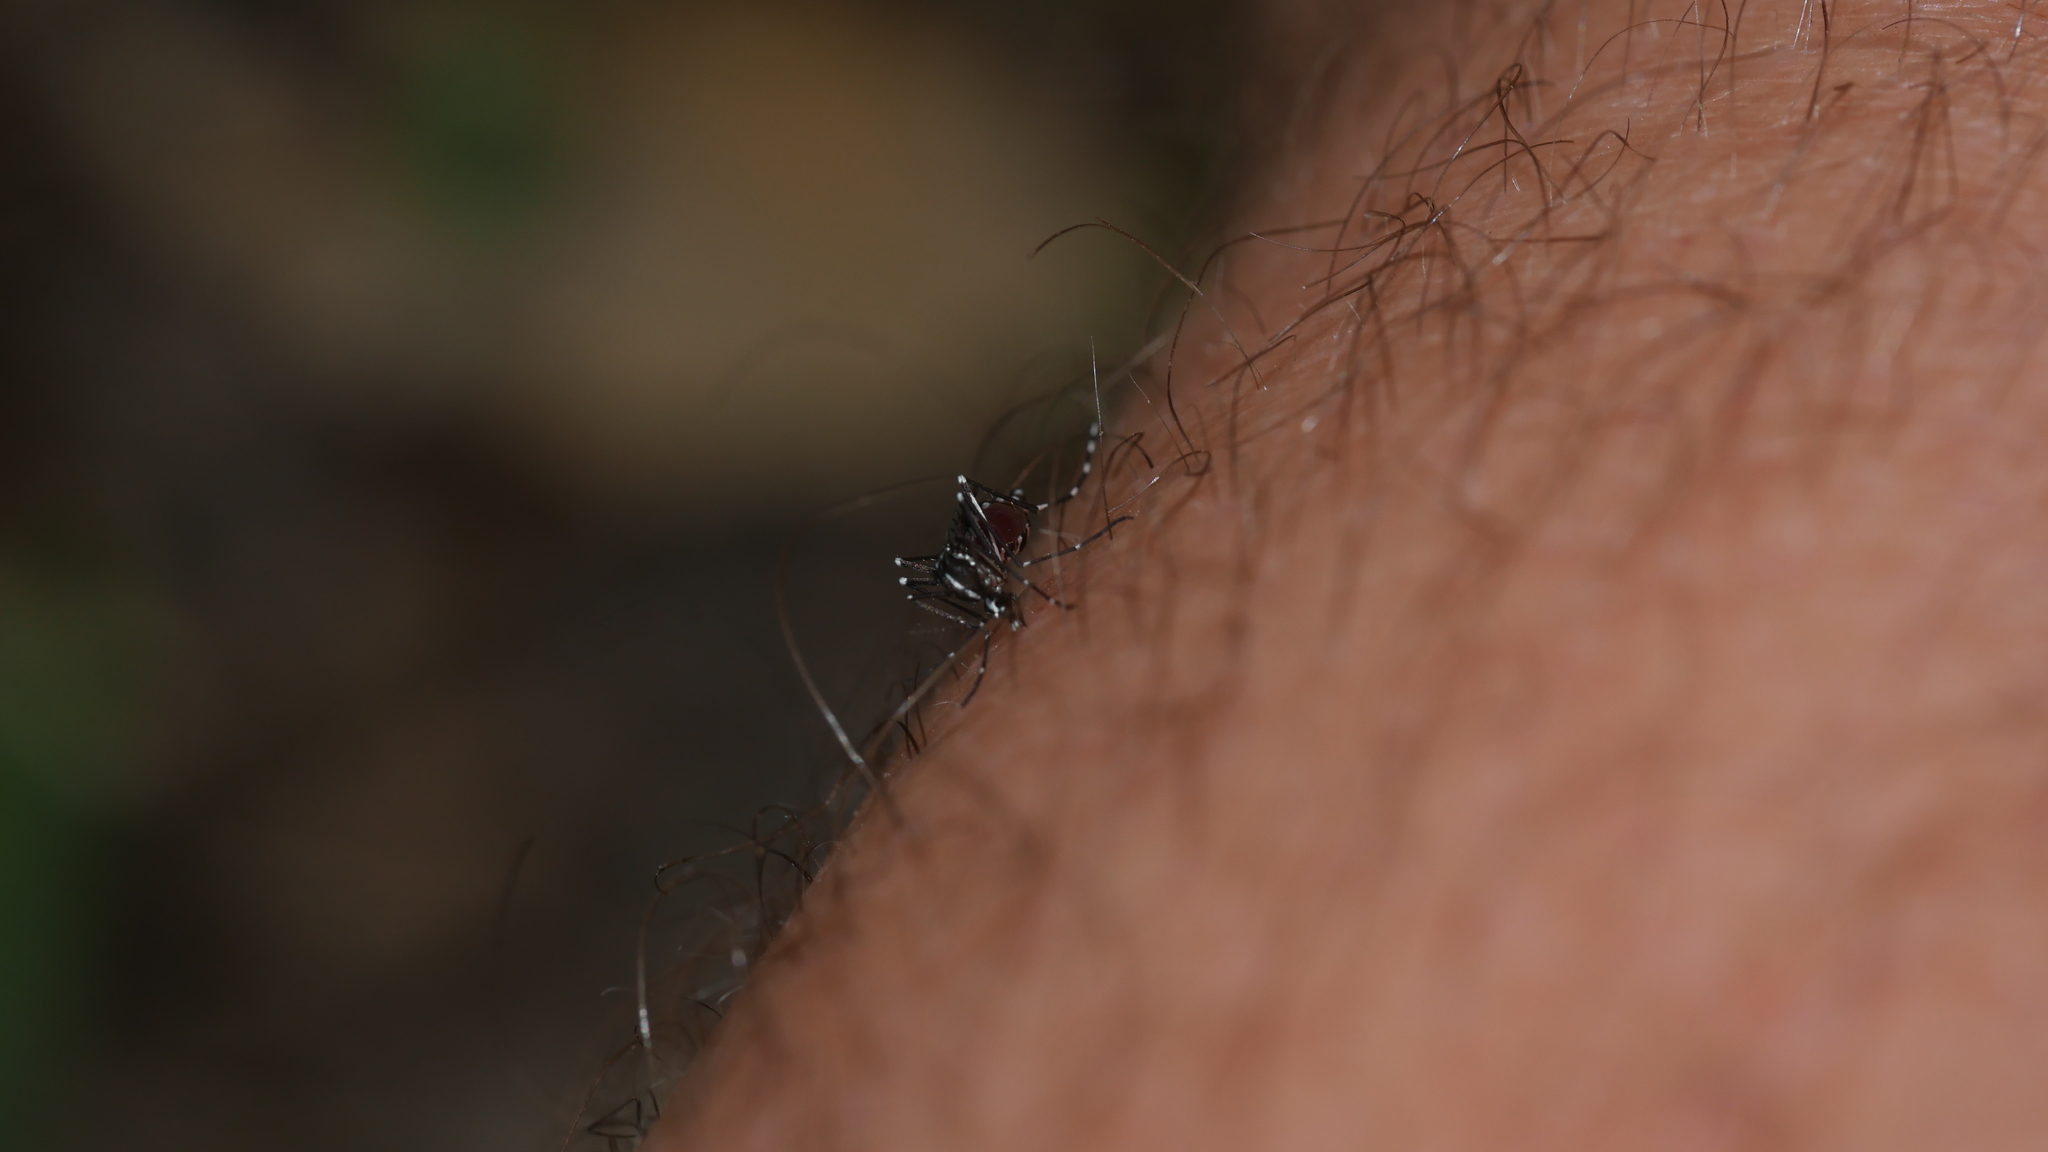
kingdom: Animalia
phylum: Arthropoda
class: Insecta
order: Diptera
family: Culicidae
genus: Aedes
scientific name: Aedes albopictus
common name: Tiger mosquito
